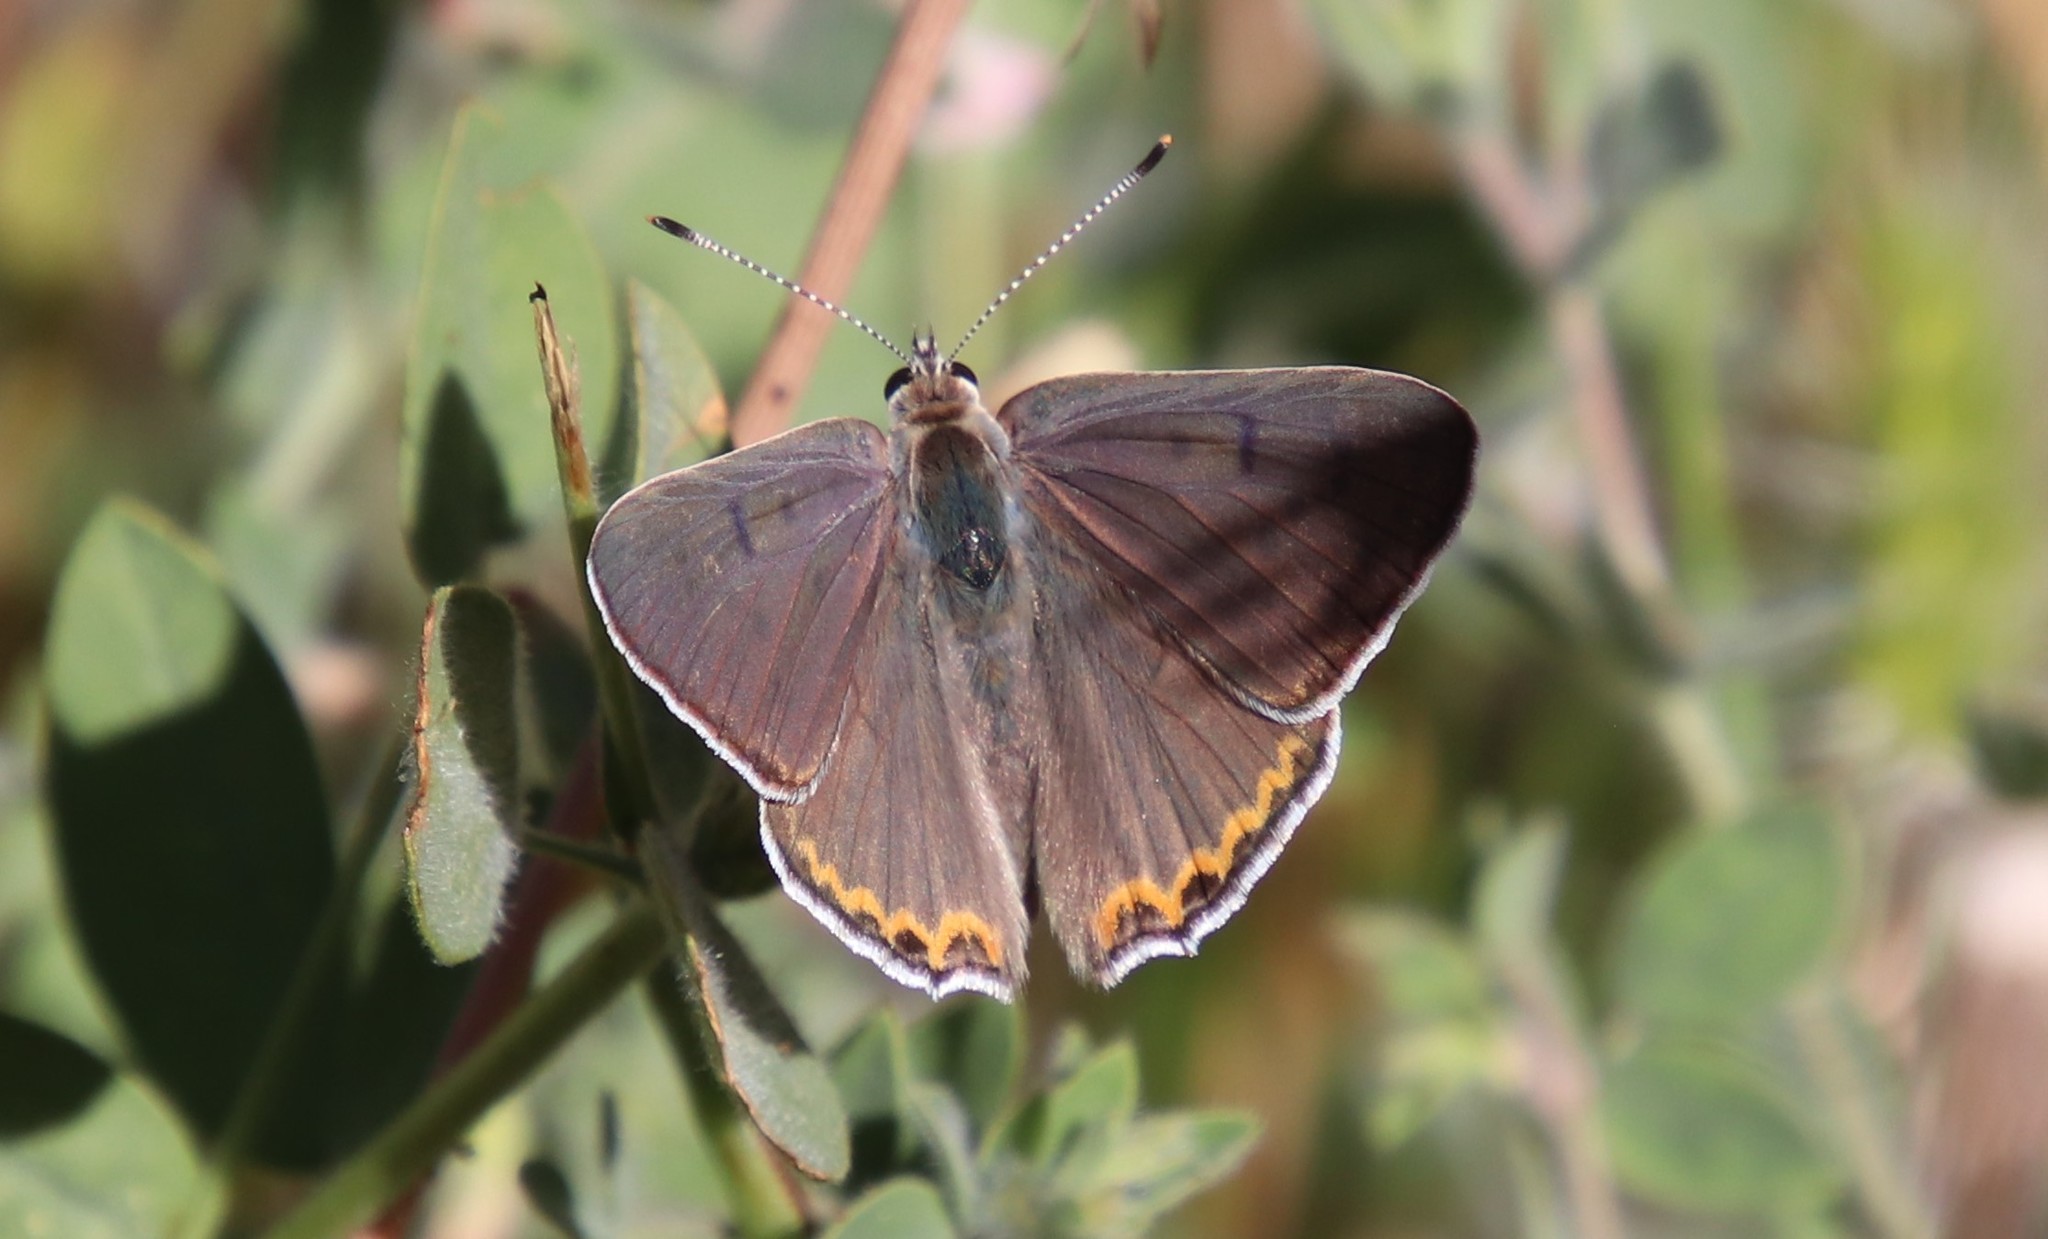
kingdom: Animalia
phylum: Arthropoda
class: Insecta
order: Lepidoptera
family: Lycaenidae
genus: Tharsalea
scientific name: Tharsalea xanthoides
